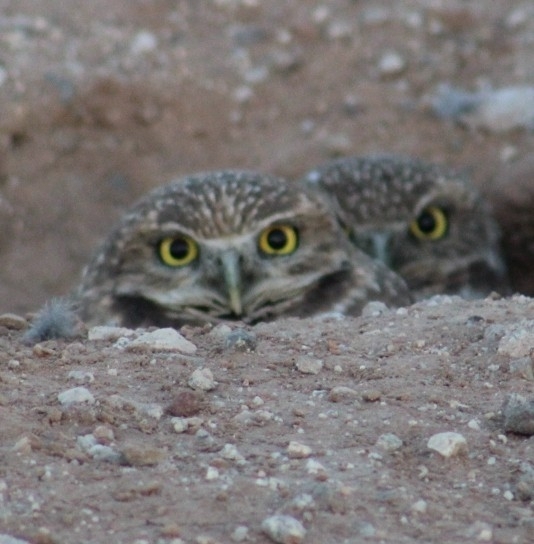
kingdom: Animalia
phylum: Chordata
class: Aves
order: Strigiformes
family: Strigidae
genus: Athene
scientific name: Athene cunicularia
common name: Burrowing owl
